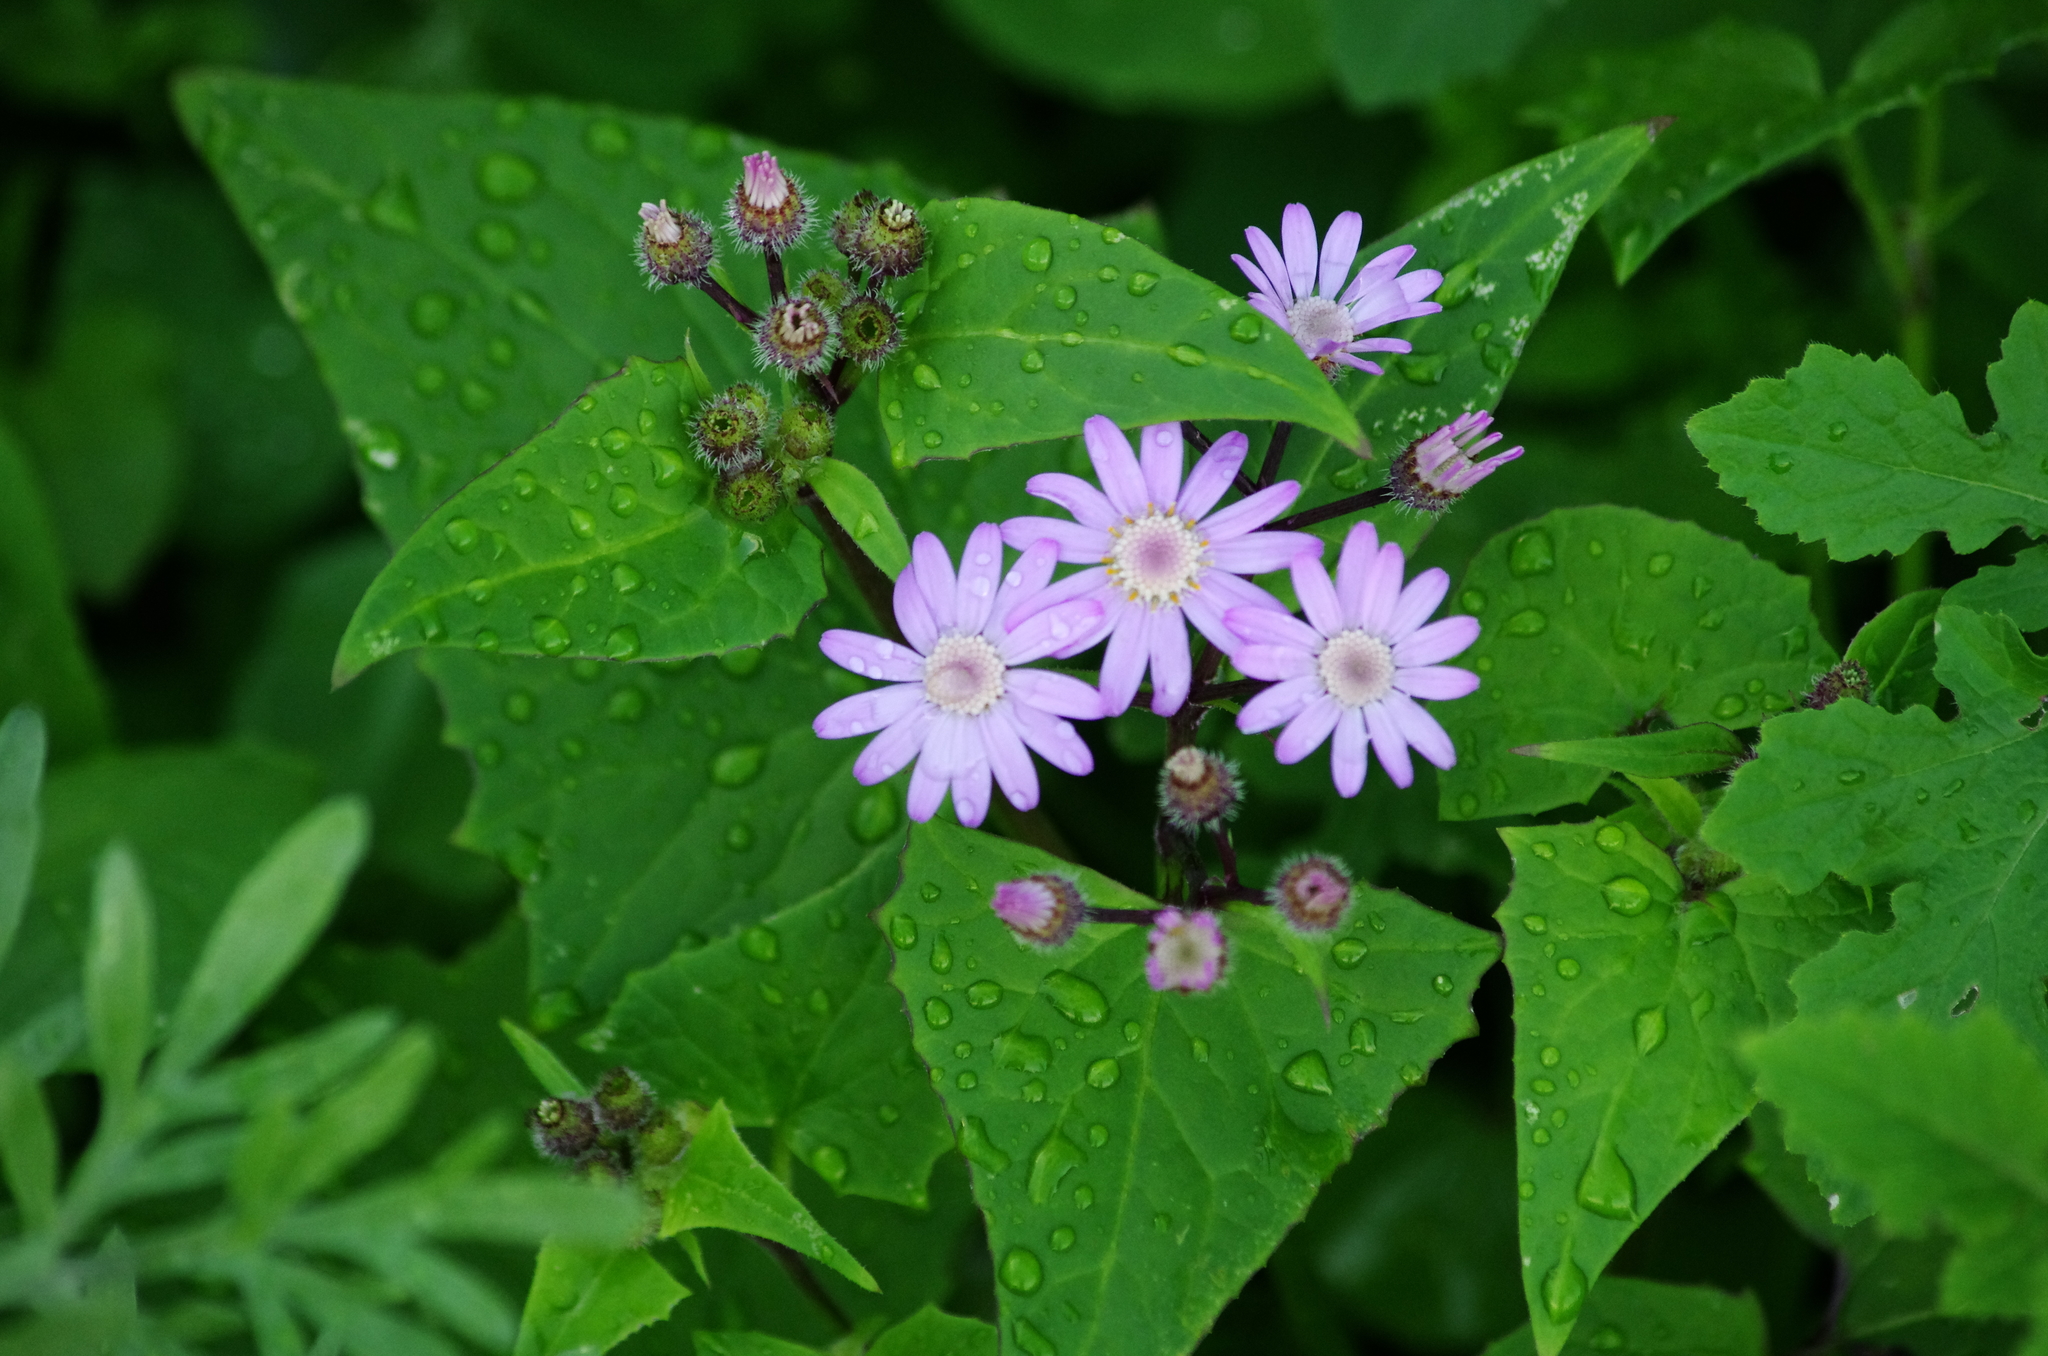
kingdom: Plantae
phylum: Tracheophyta
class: Magnoliopsida
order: Asterales
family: Asteraceae
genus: Pericallis
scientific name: Pericallis echinata
